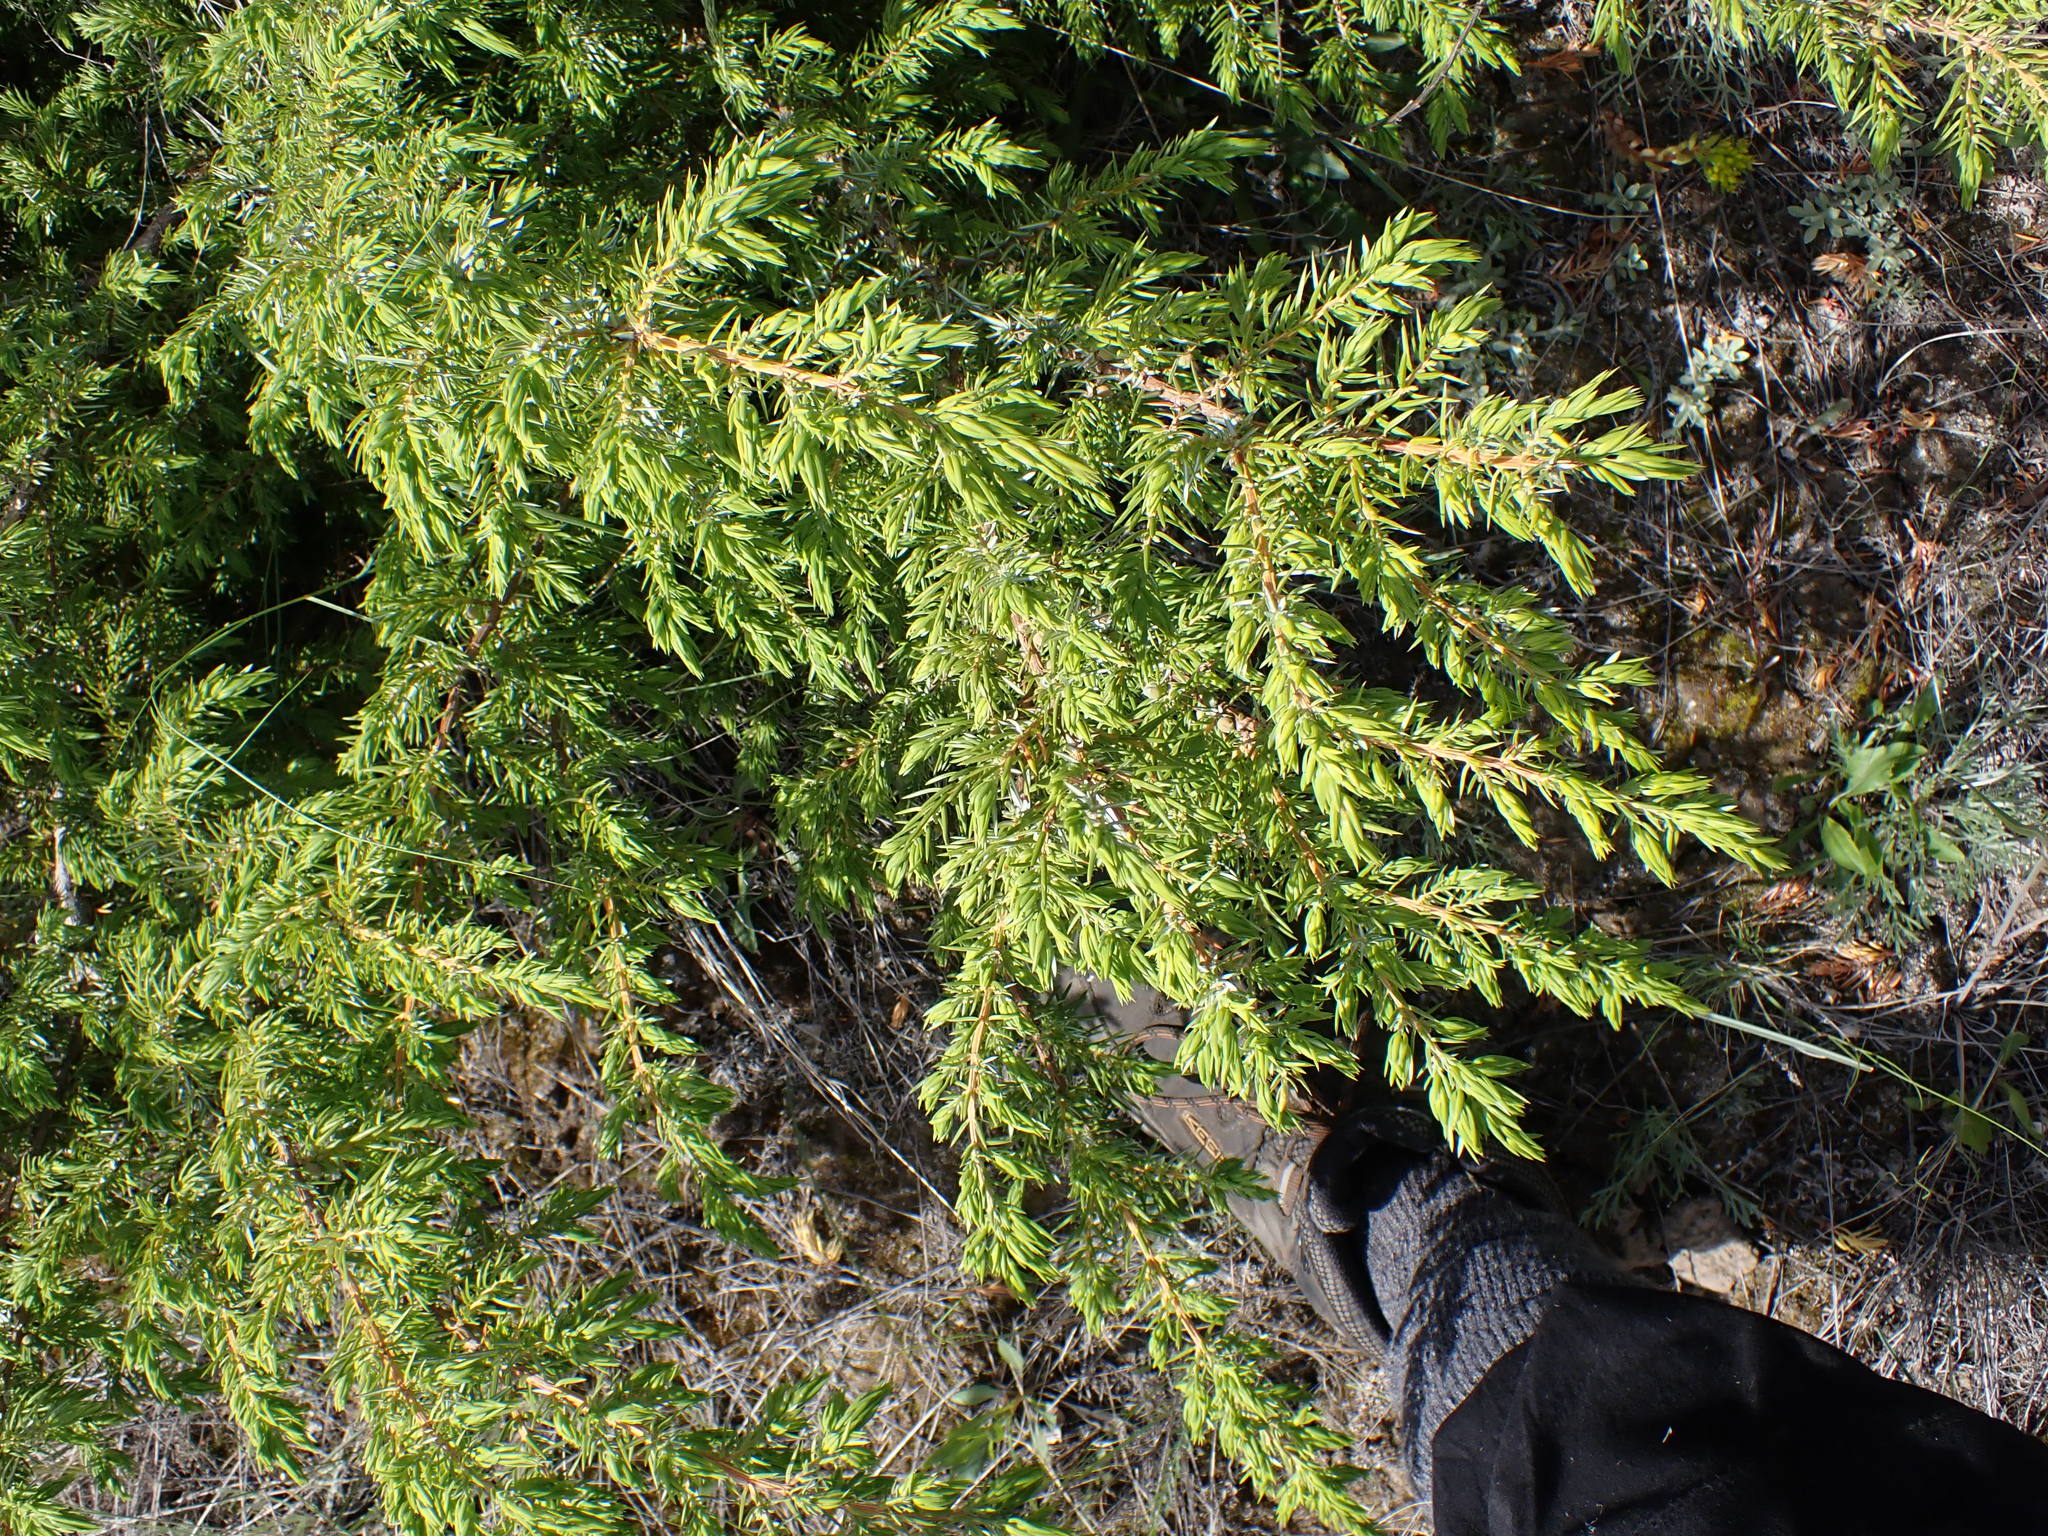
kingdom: Plantae
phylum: Tracheophyta
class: Pinopsida
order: Pinales
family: Cupressaceae
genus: Juniperus
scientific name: Juniperus communis
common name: Common juniper
